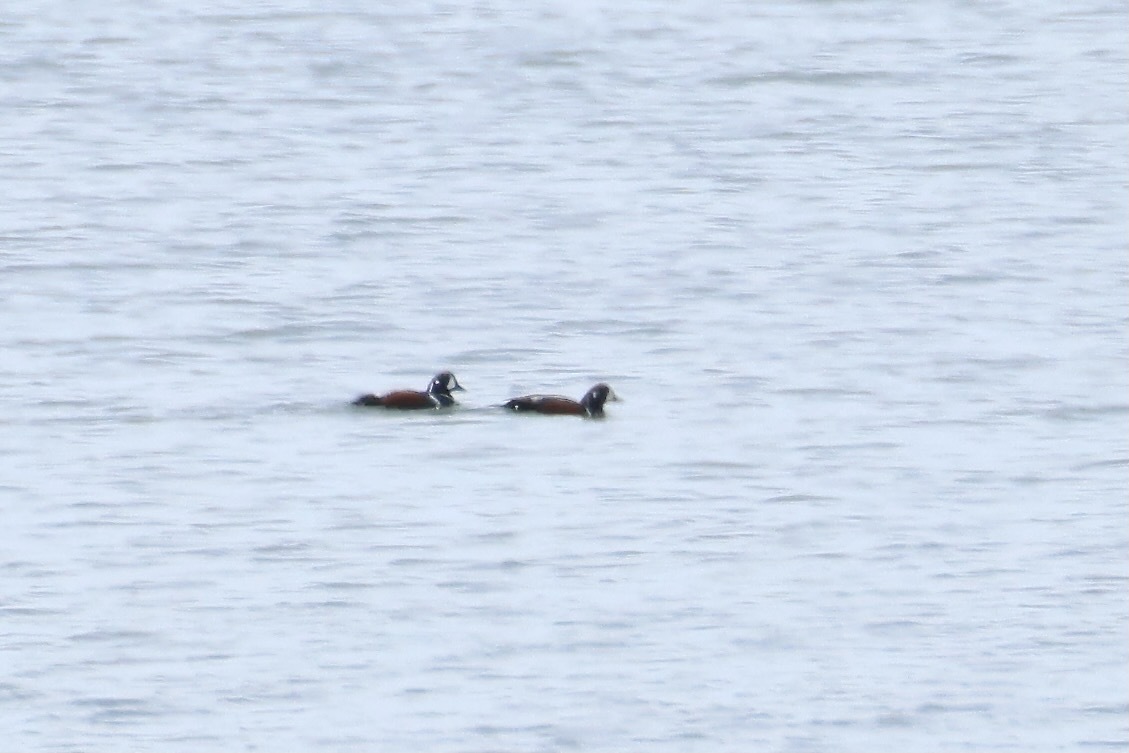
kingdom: Animalia
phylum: Chordata
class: Aves
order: Anseriformes
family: Anatidae
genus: Histrionicus
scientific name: Histrionicus histrionicus
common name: Harlequin duck
